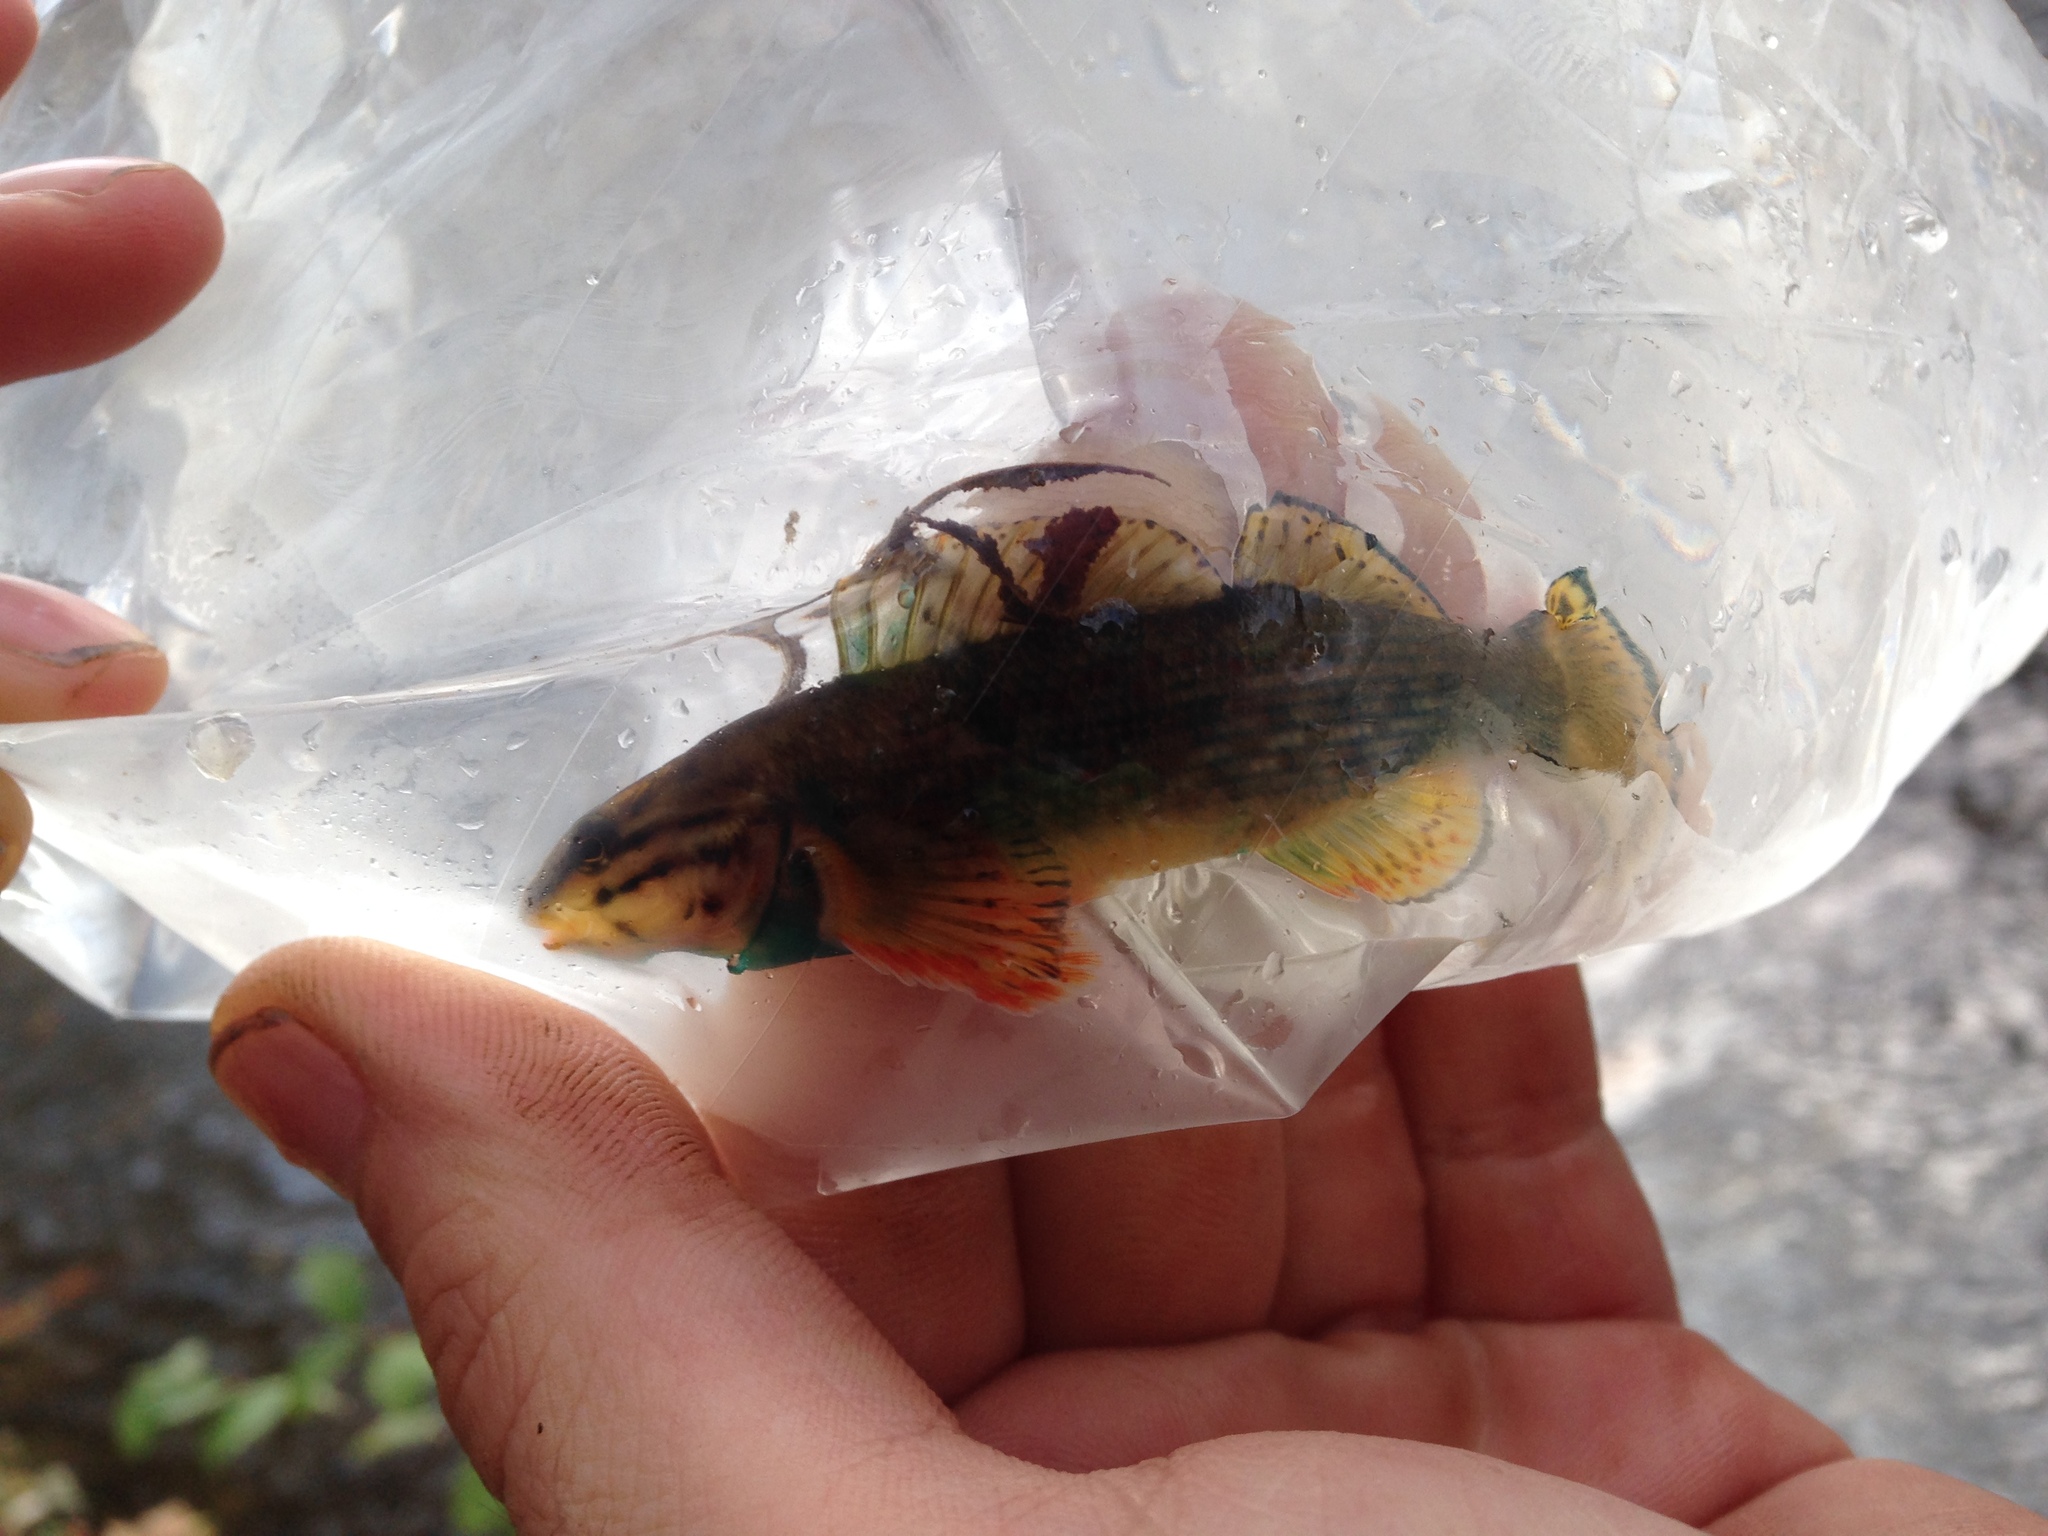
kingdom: Animalia
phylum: Chordata
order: Perciformes
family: Percidae
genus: Etheostoma
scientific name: Etheostoma rufilineatum
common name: Redline darter
